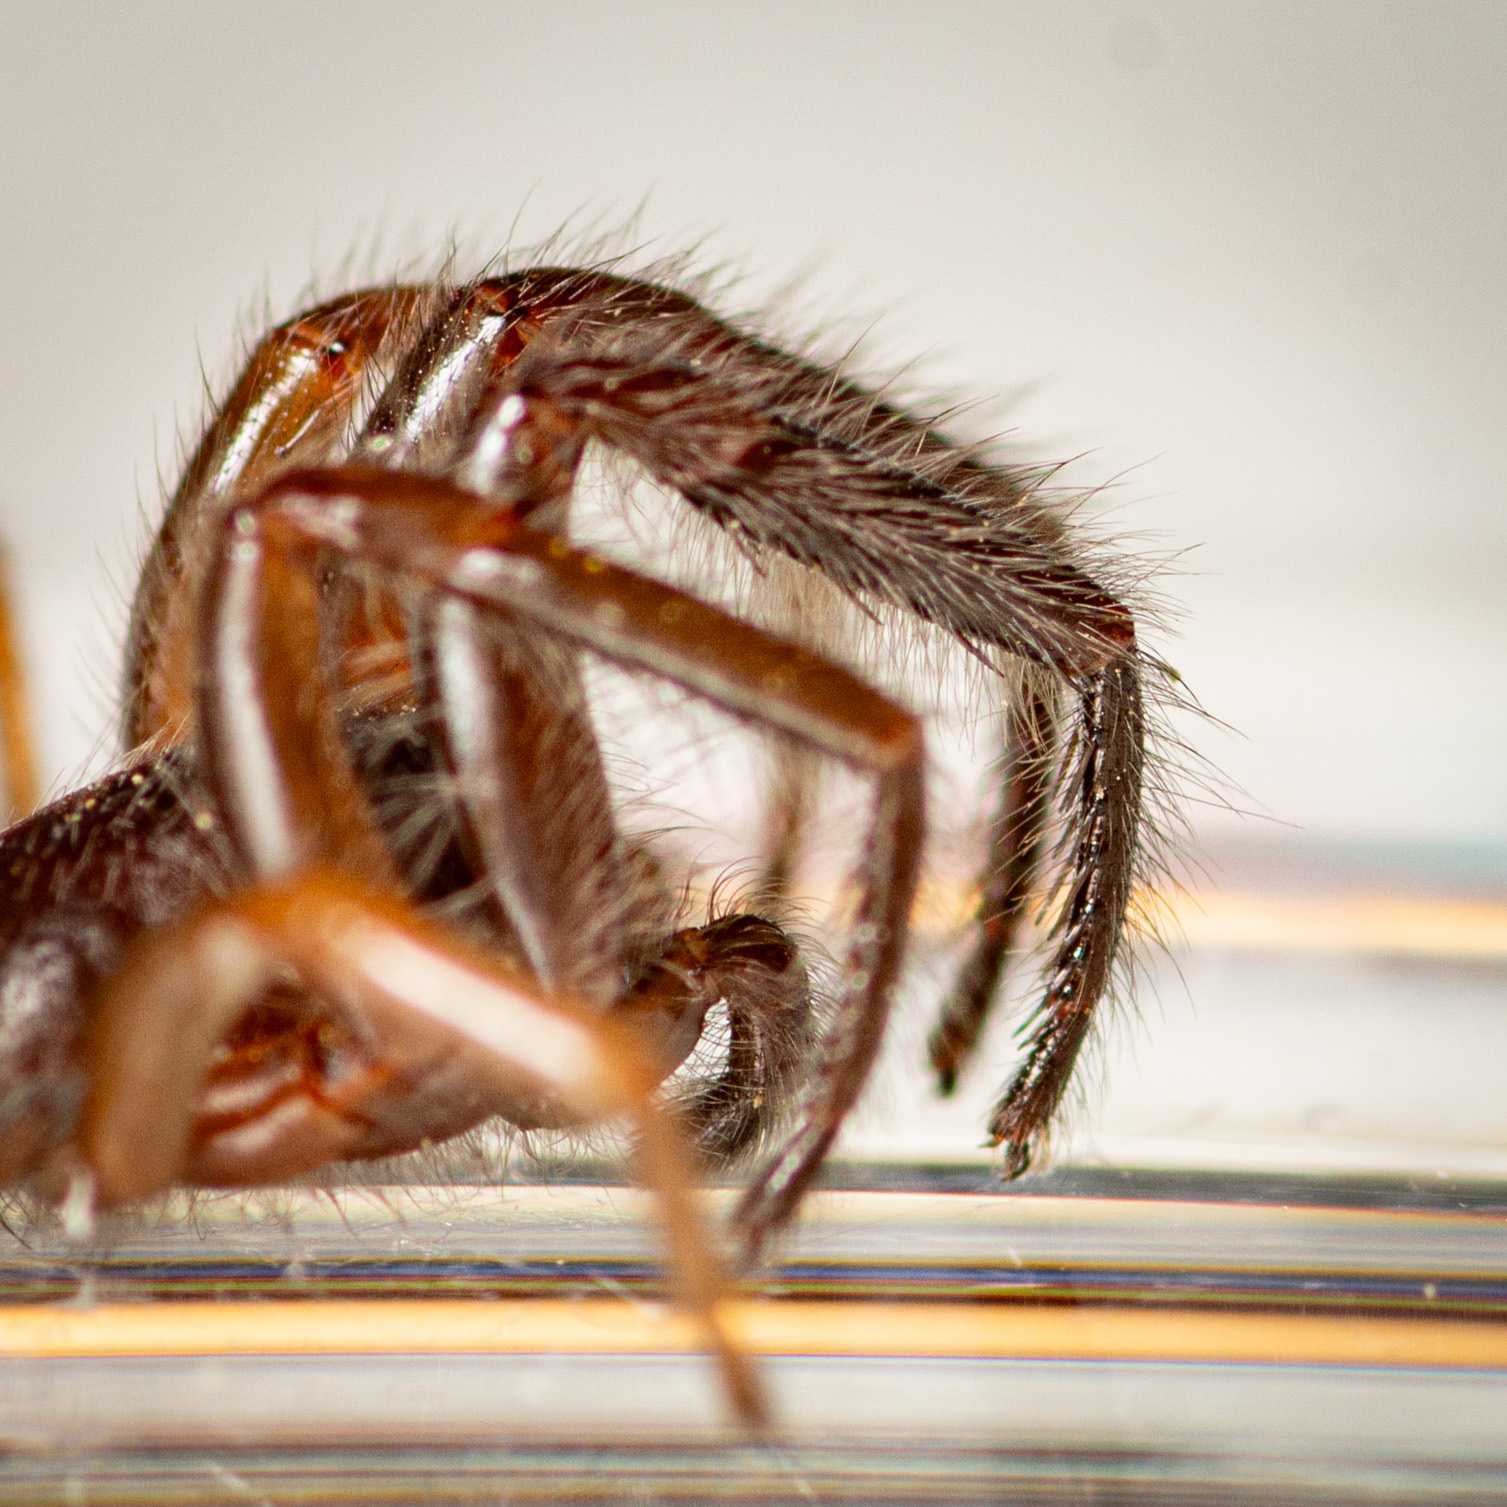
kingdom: Animalia
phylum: Arthropoda
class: Arachnida
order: Araneae
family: Segestriidae
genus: Ariadna
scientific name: Ariadna bicolor
